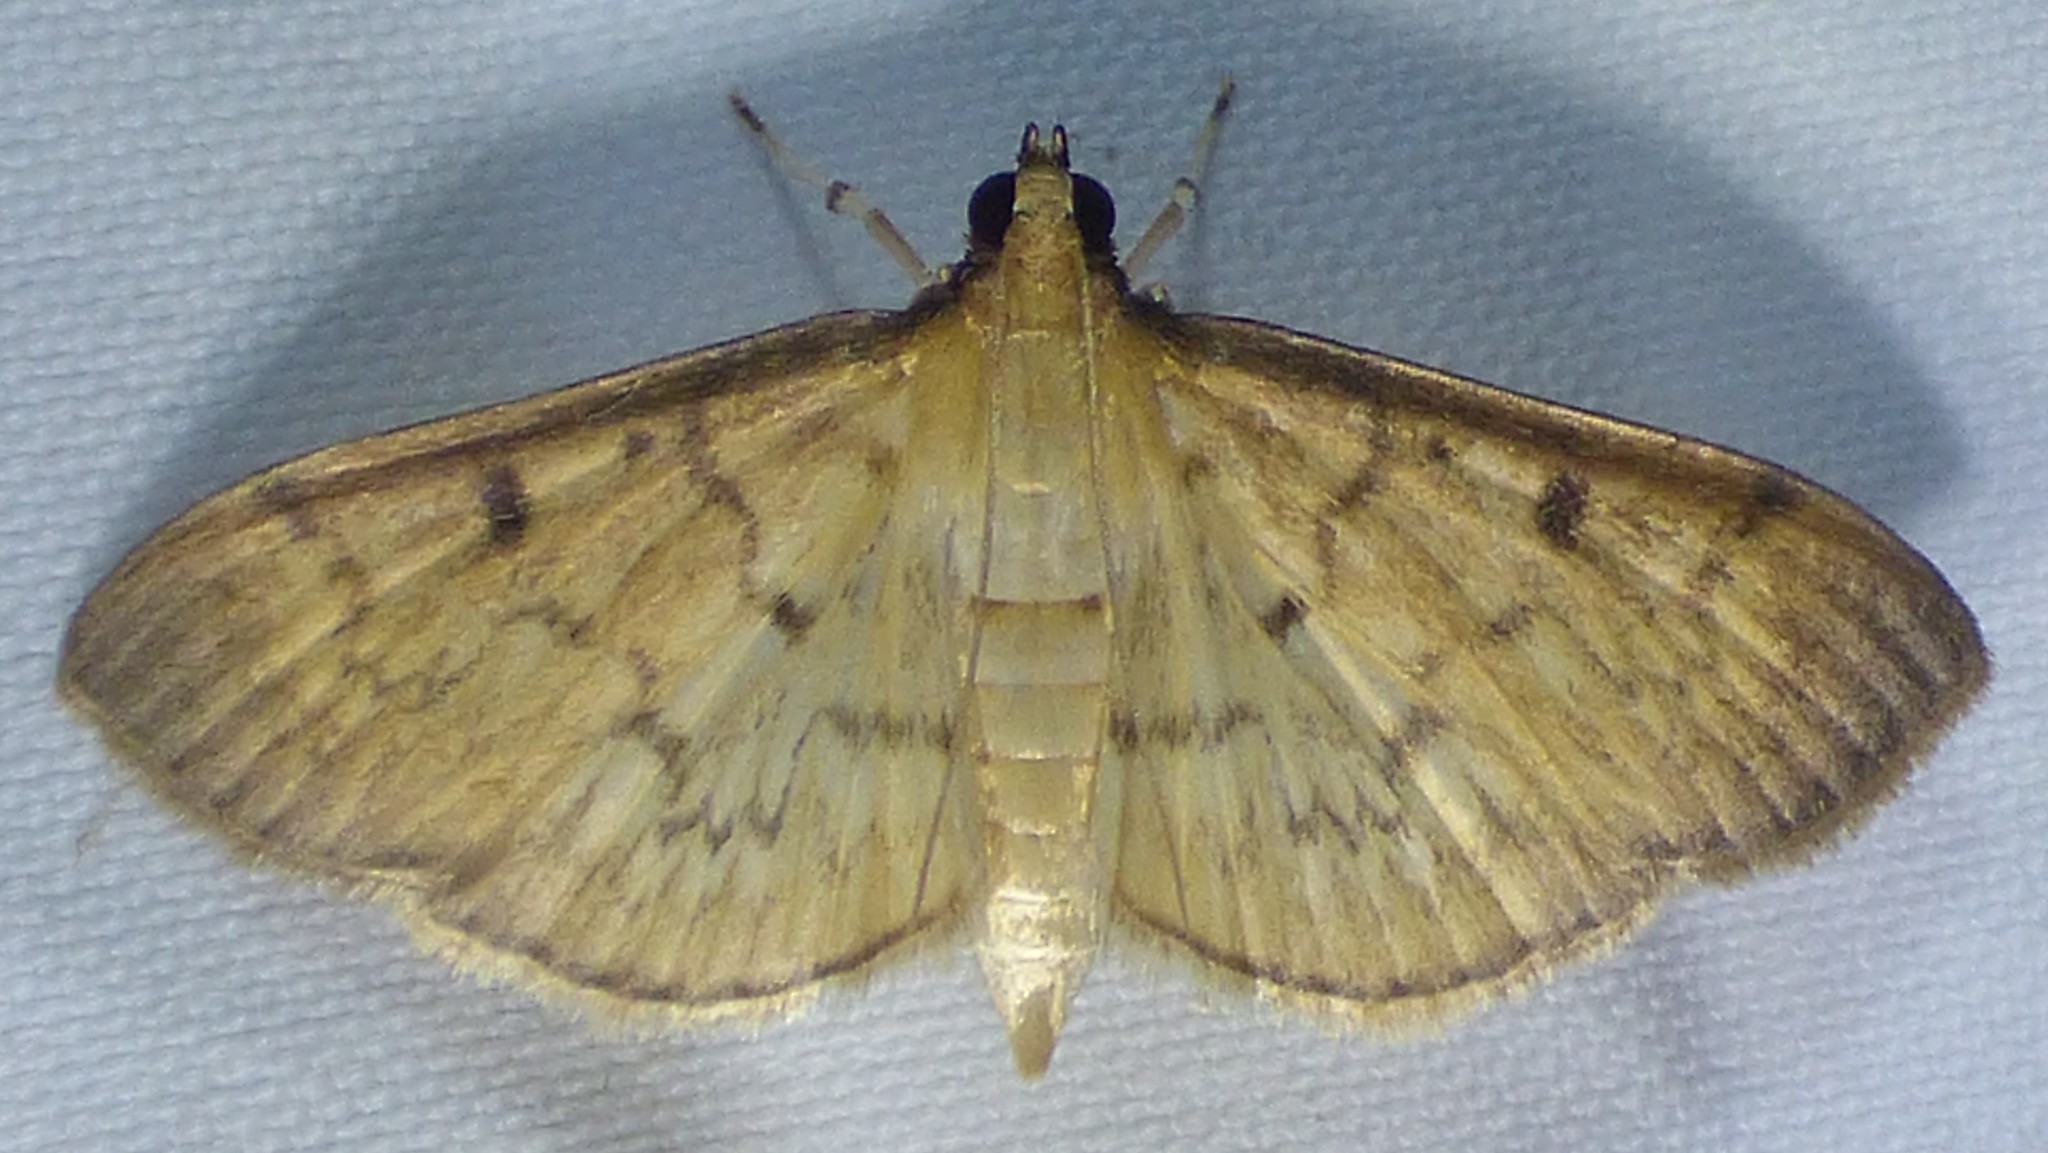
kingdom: Animalia
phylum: Arthropoda
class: Insecta
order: Lepidoptera
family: Crambidae
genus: Herpetogramma
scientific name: Herpetogramma bipunctalis
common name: Southern beet webworm
